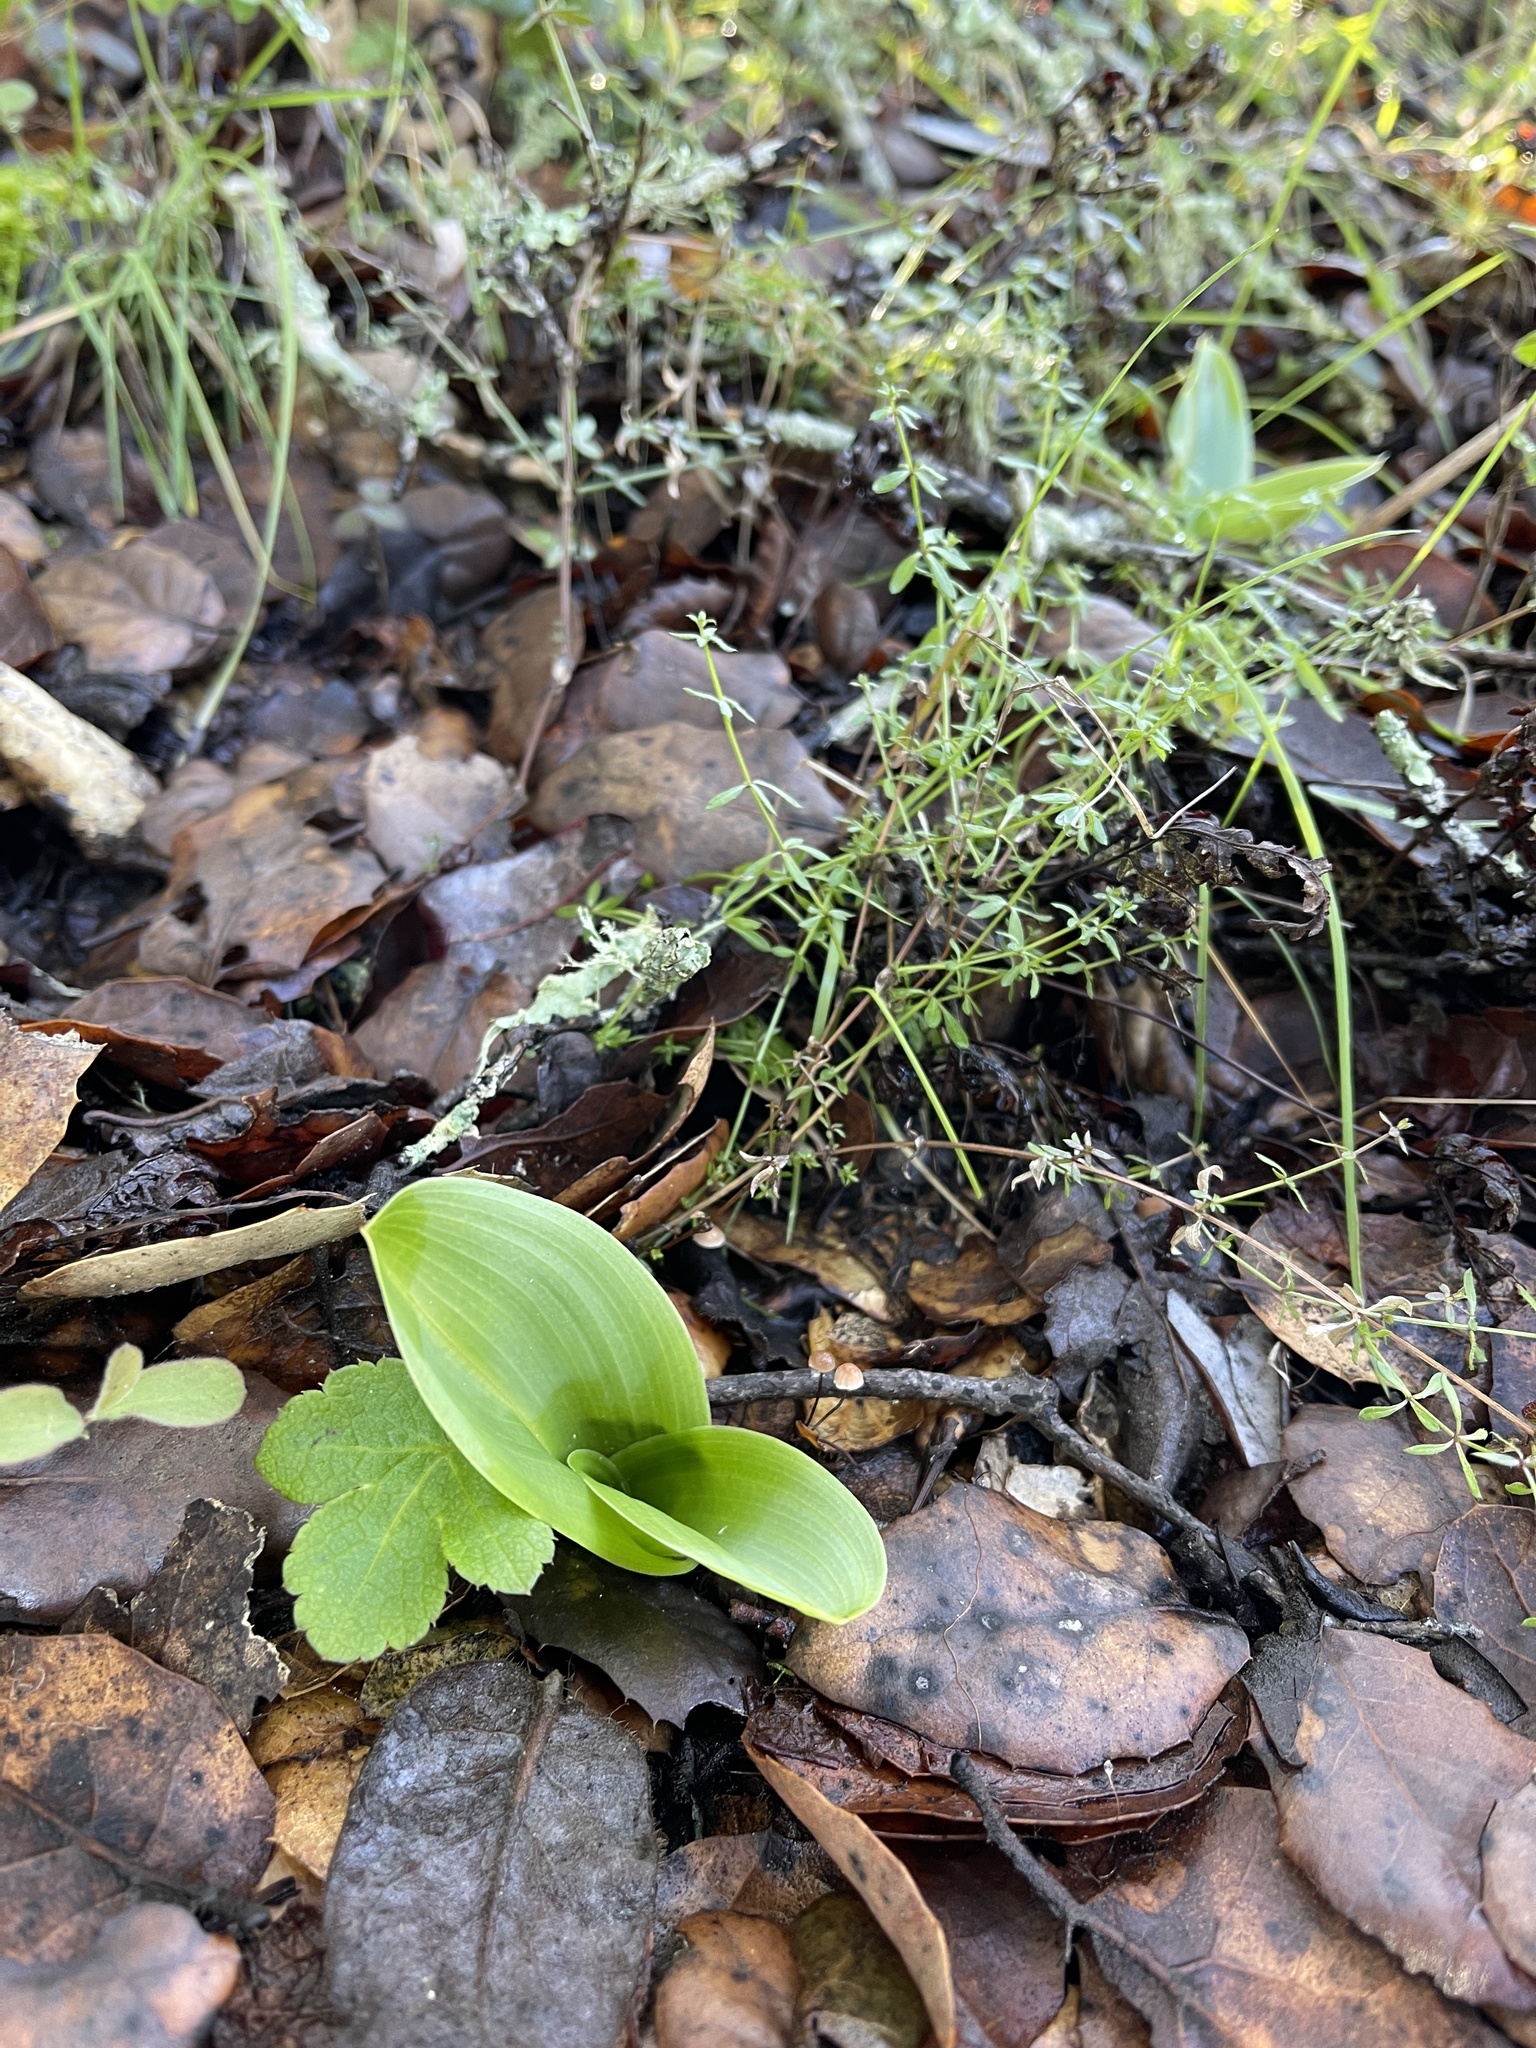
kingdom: Plantae
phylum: Tracheophyta
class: Liliopsida
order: Asparagales
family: Orchidaceae
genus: Platanthera
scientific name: Platanthera elongata
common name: Dense-flowered rein orchid
